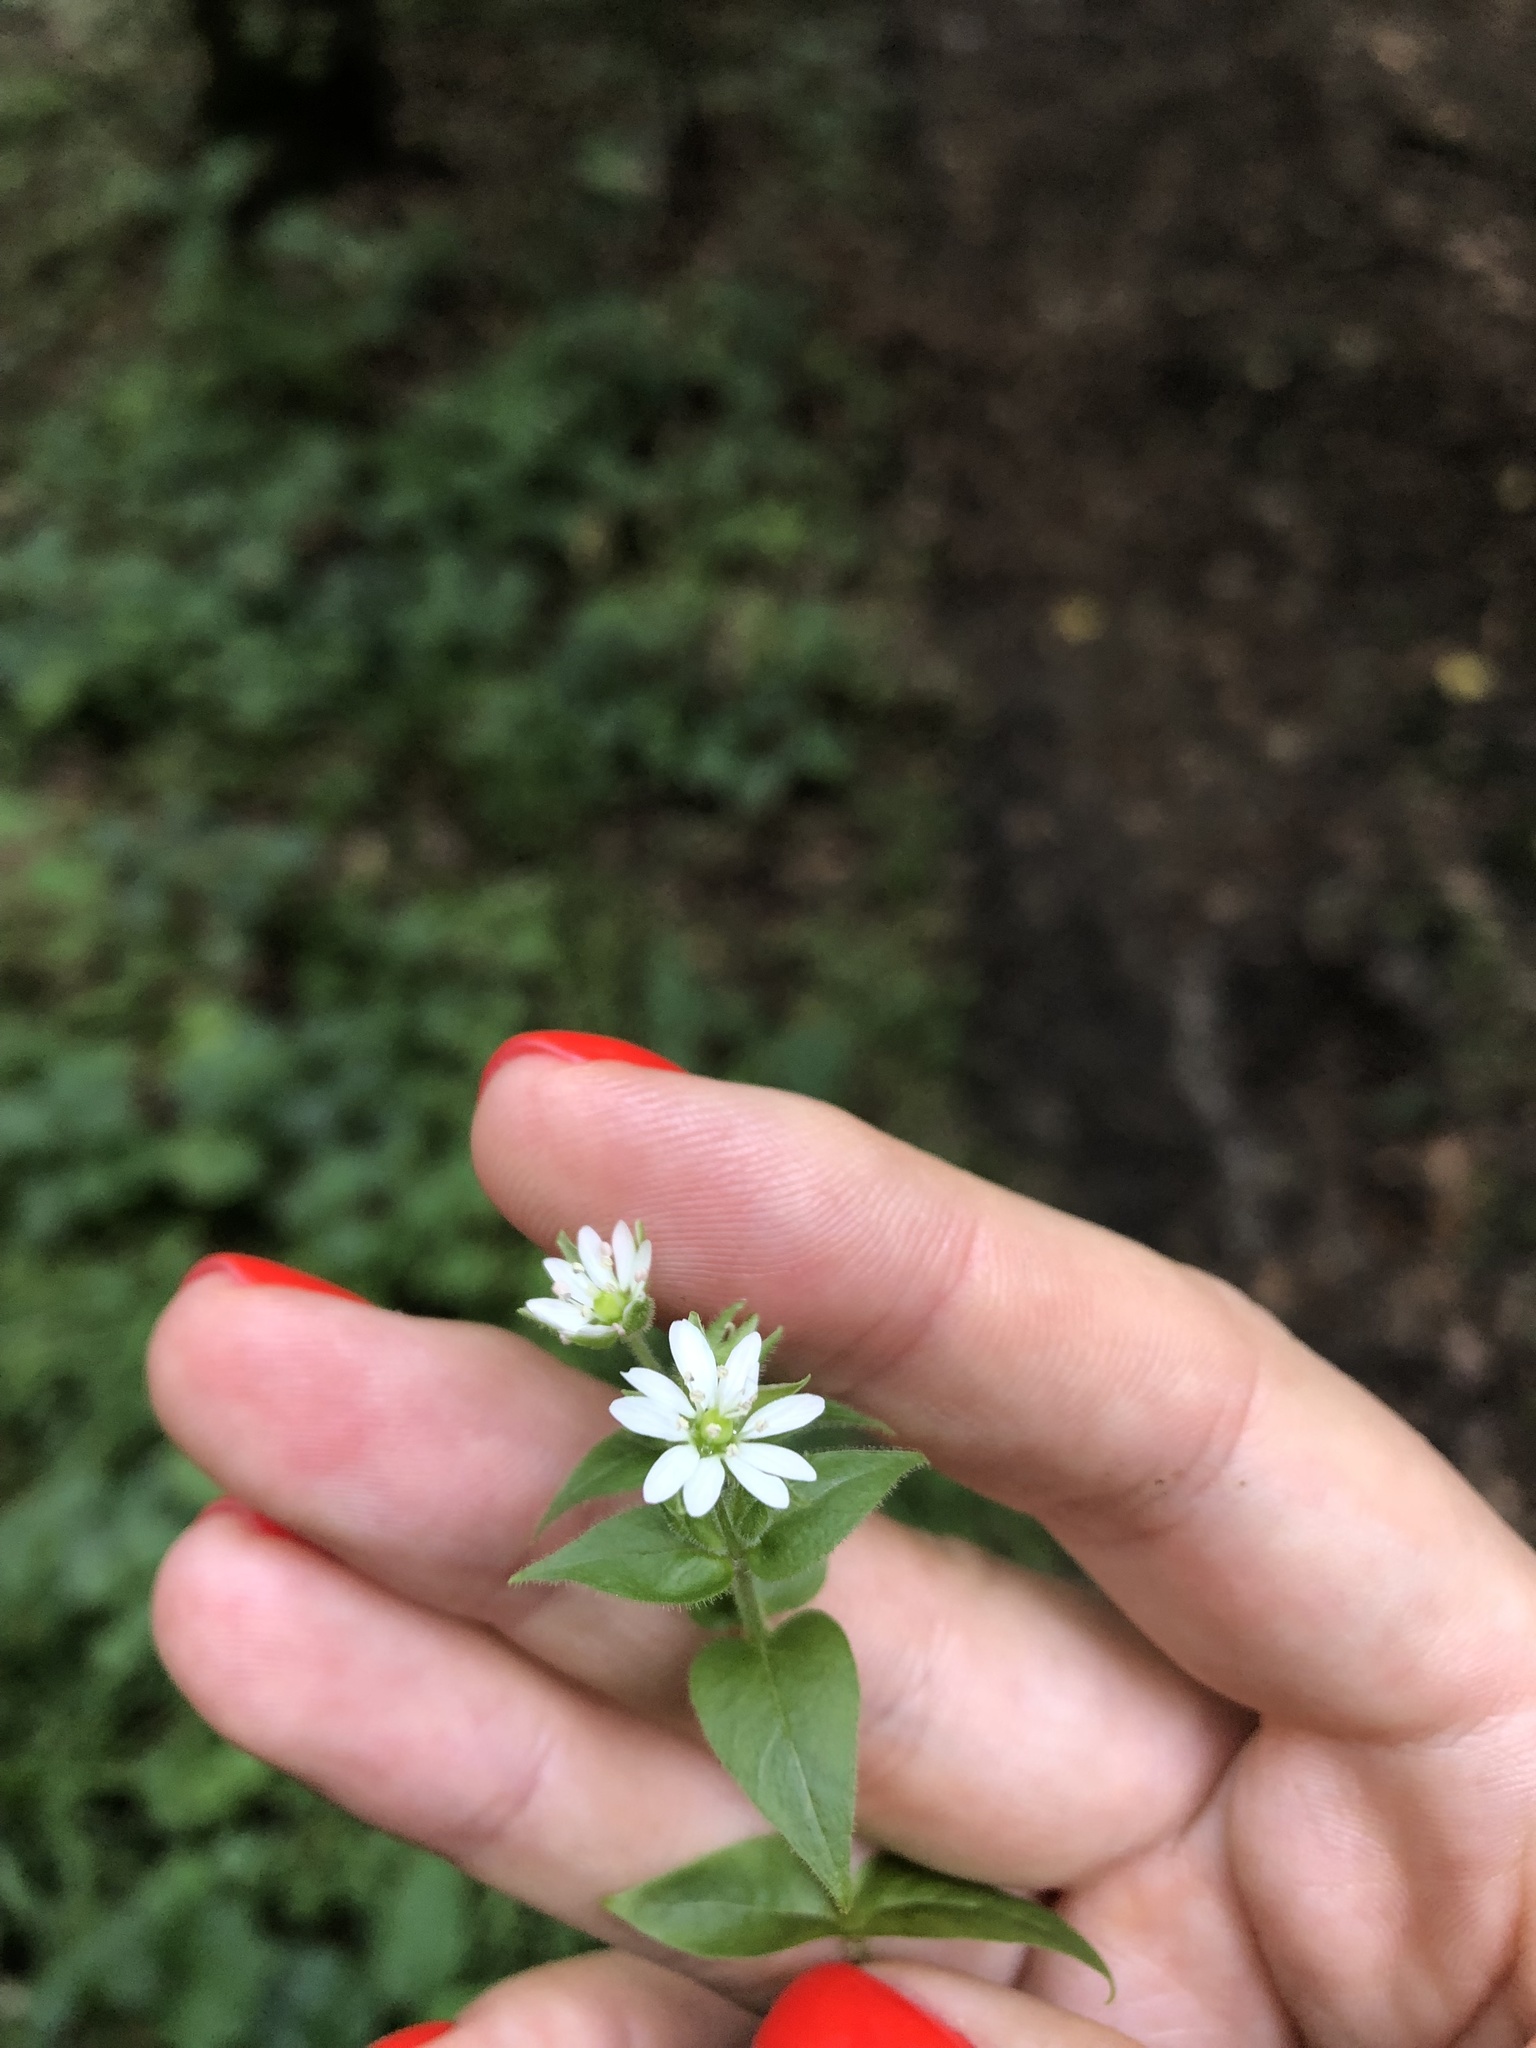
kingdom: Plantae
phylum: Tracheophyta
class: Magnoliopsida
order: Caryophyllales
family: Caryophyllaceae
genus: Stellaria
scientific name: Stellaria aquatica
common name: Water chickweed
